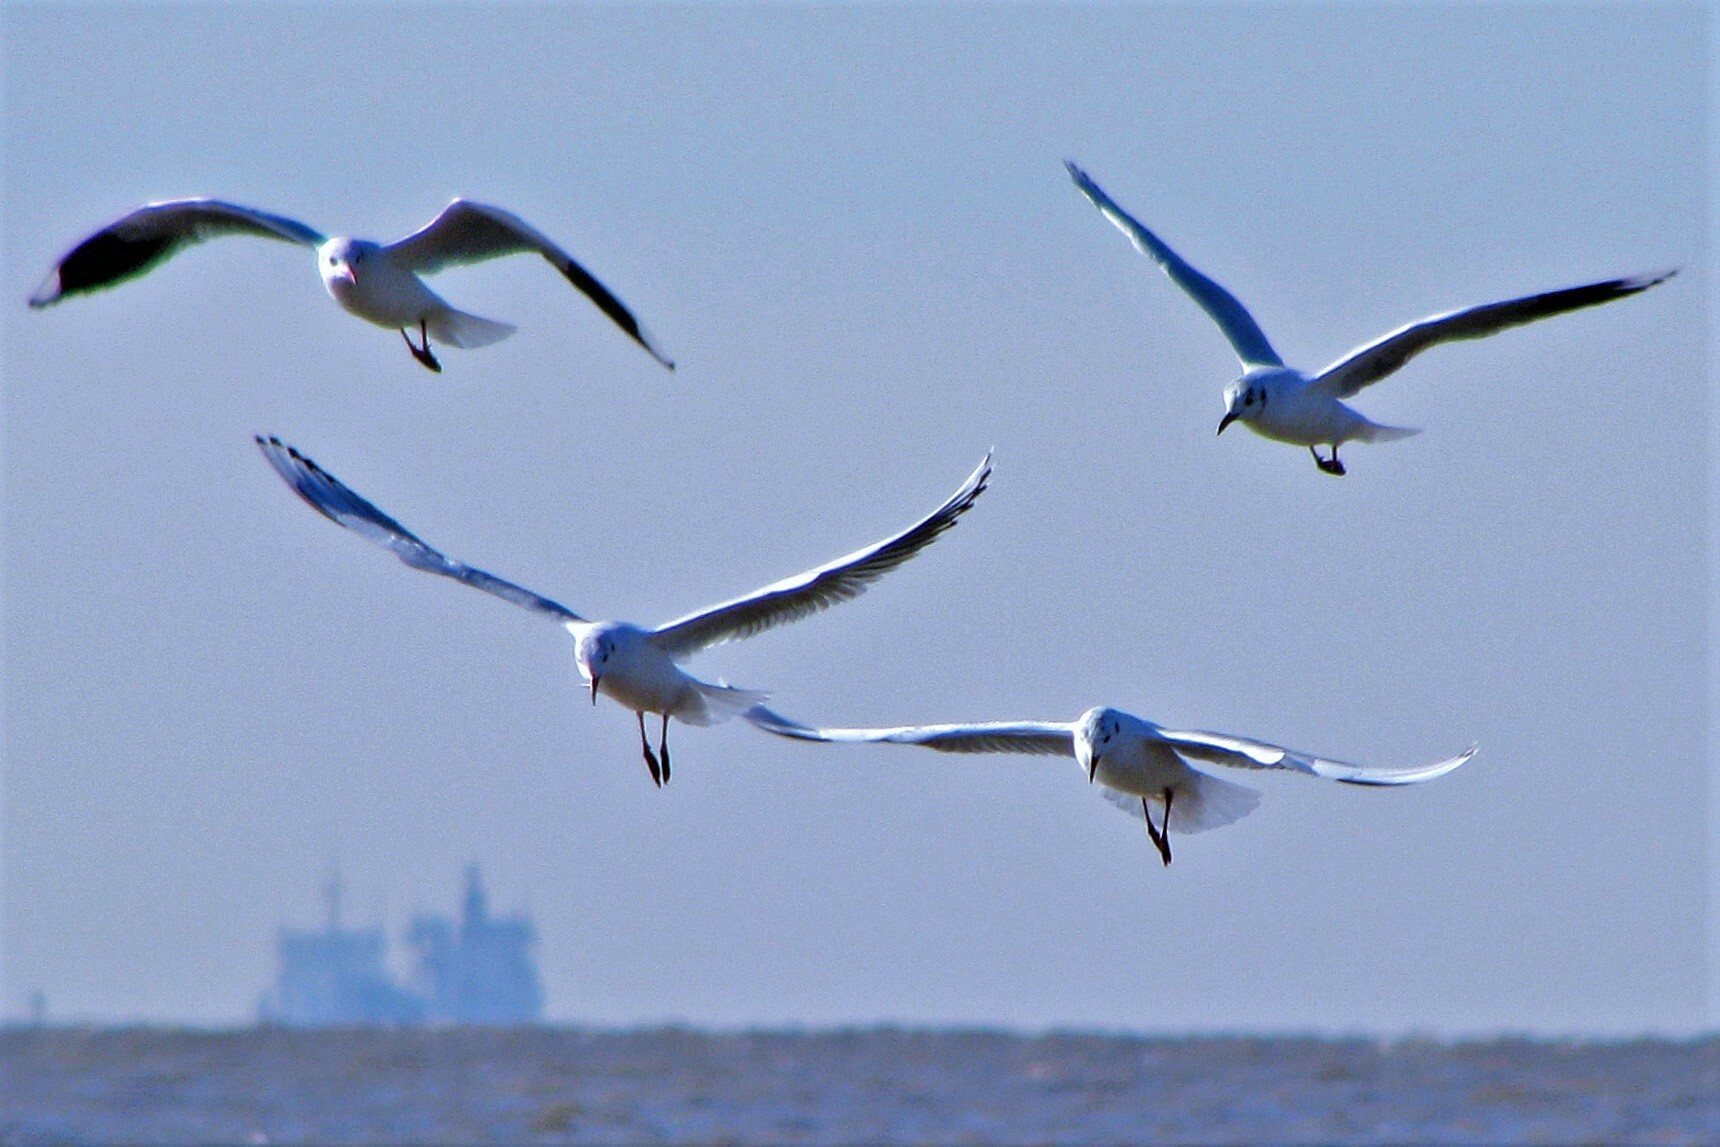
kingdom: Animalia
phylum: Chordata
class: Aves
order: Charadriiformes
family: Laridae
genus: Chroicocephalus
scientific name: Chroicocephalus maculipennis
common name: Brown-hooded gull
